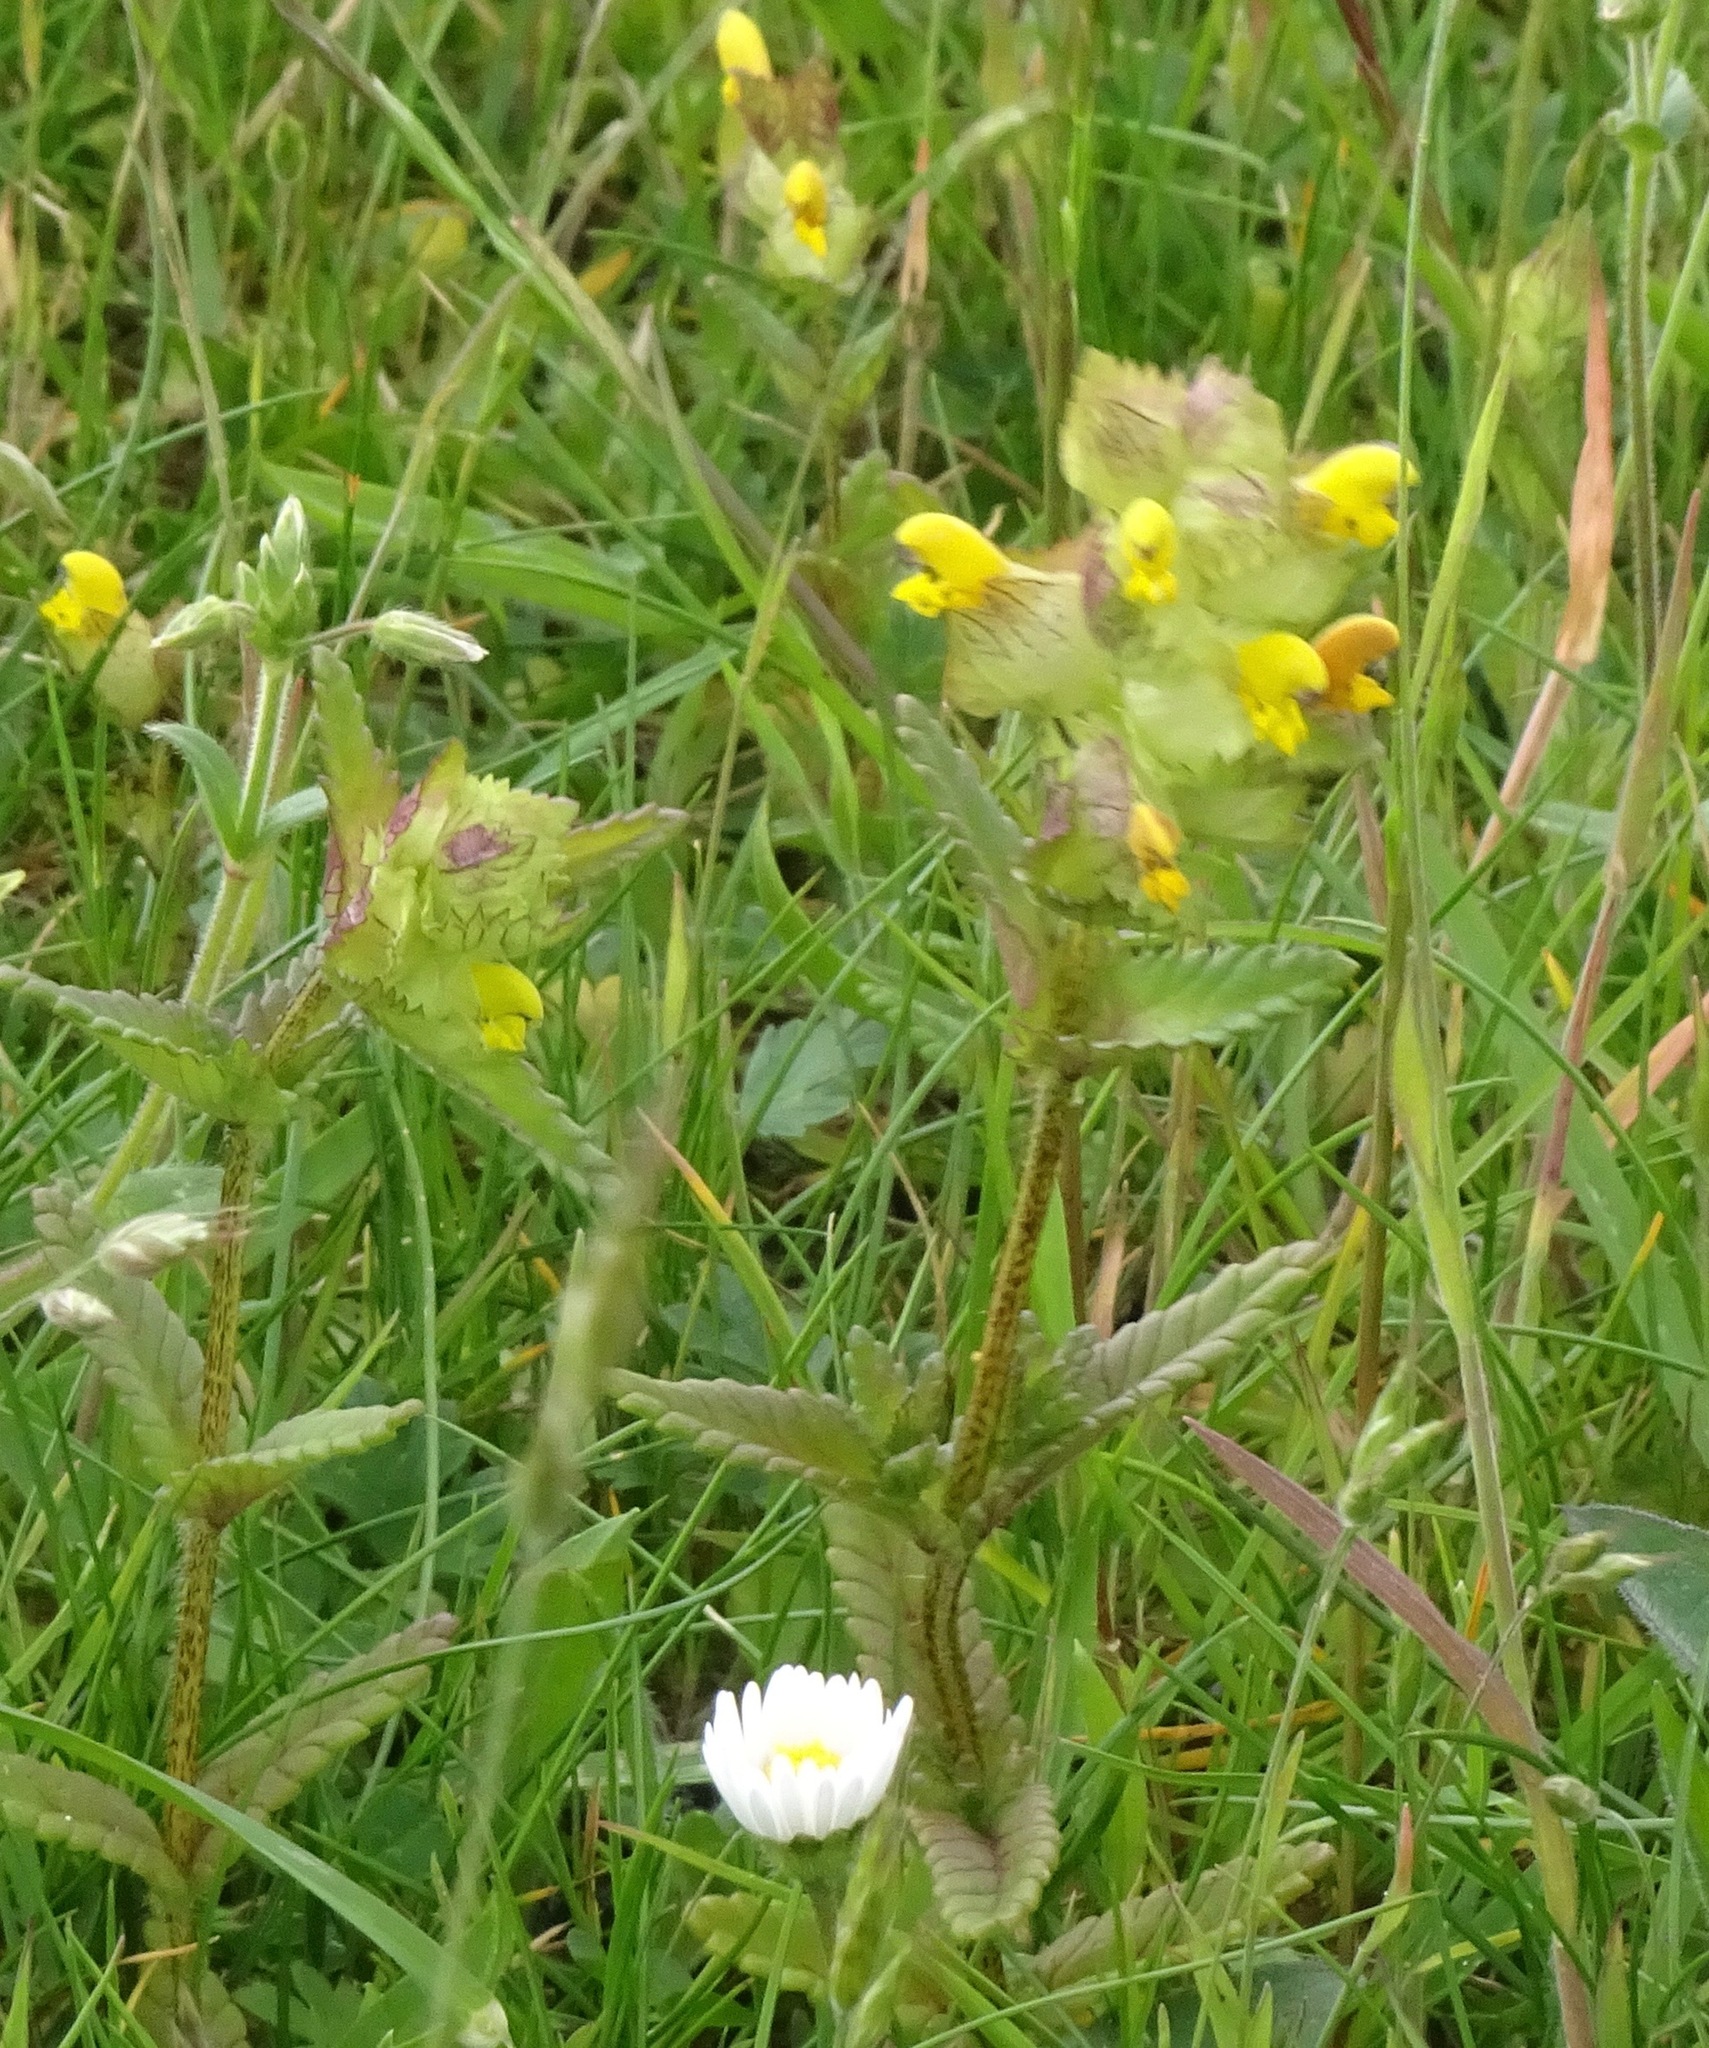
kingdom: Plantae
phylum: Tracheophyta
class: Magnoliopsida
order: Lamiales
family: Orobanchaceae
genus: Rhinanthus
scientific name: Rhinanthus minor
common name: Yellow-rattle
